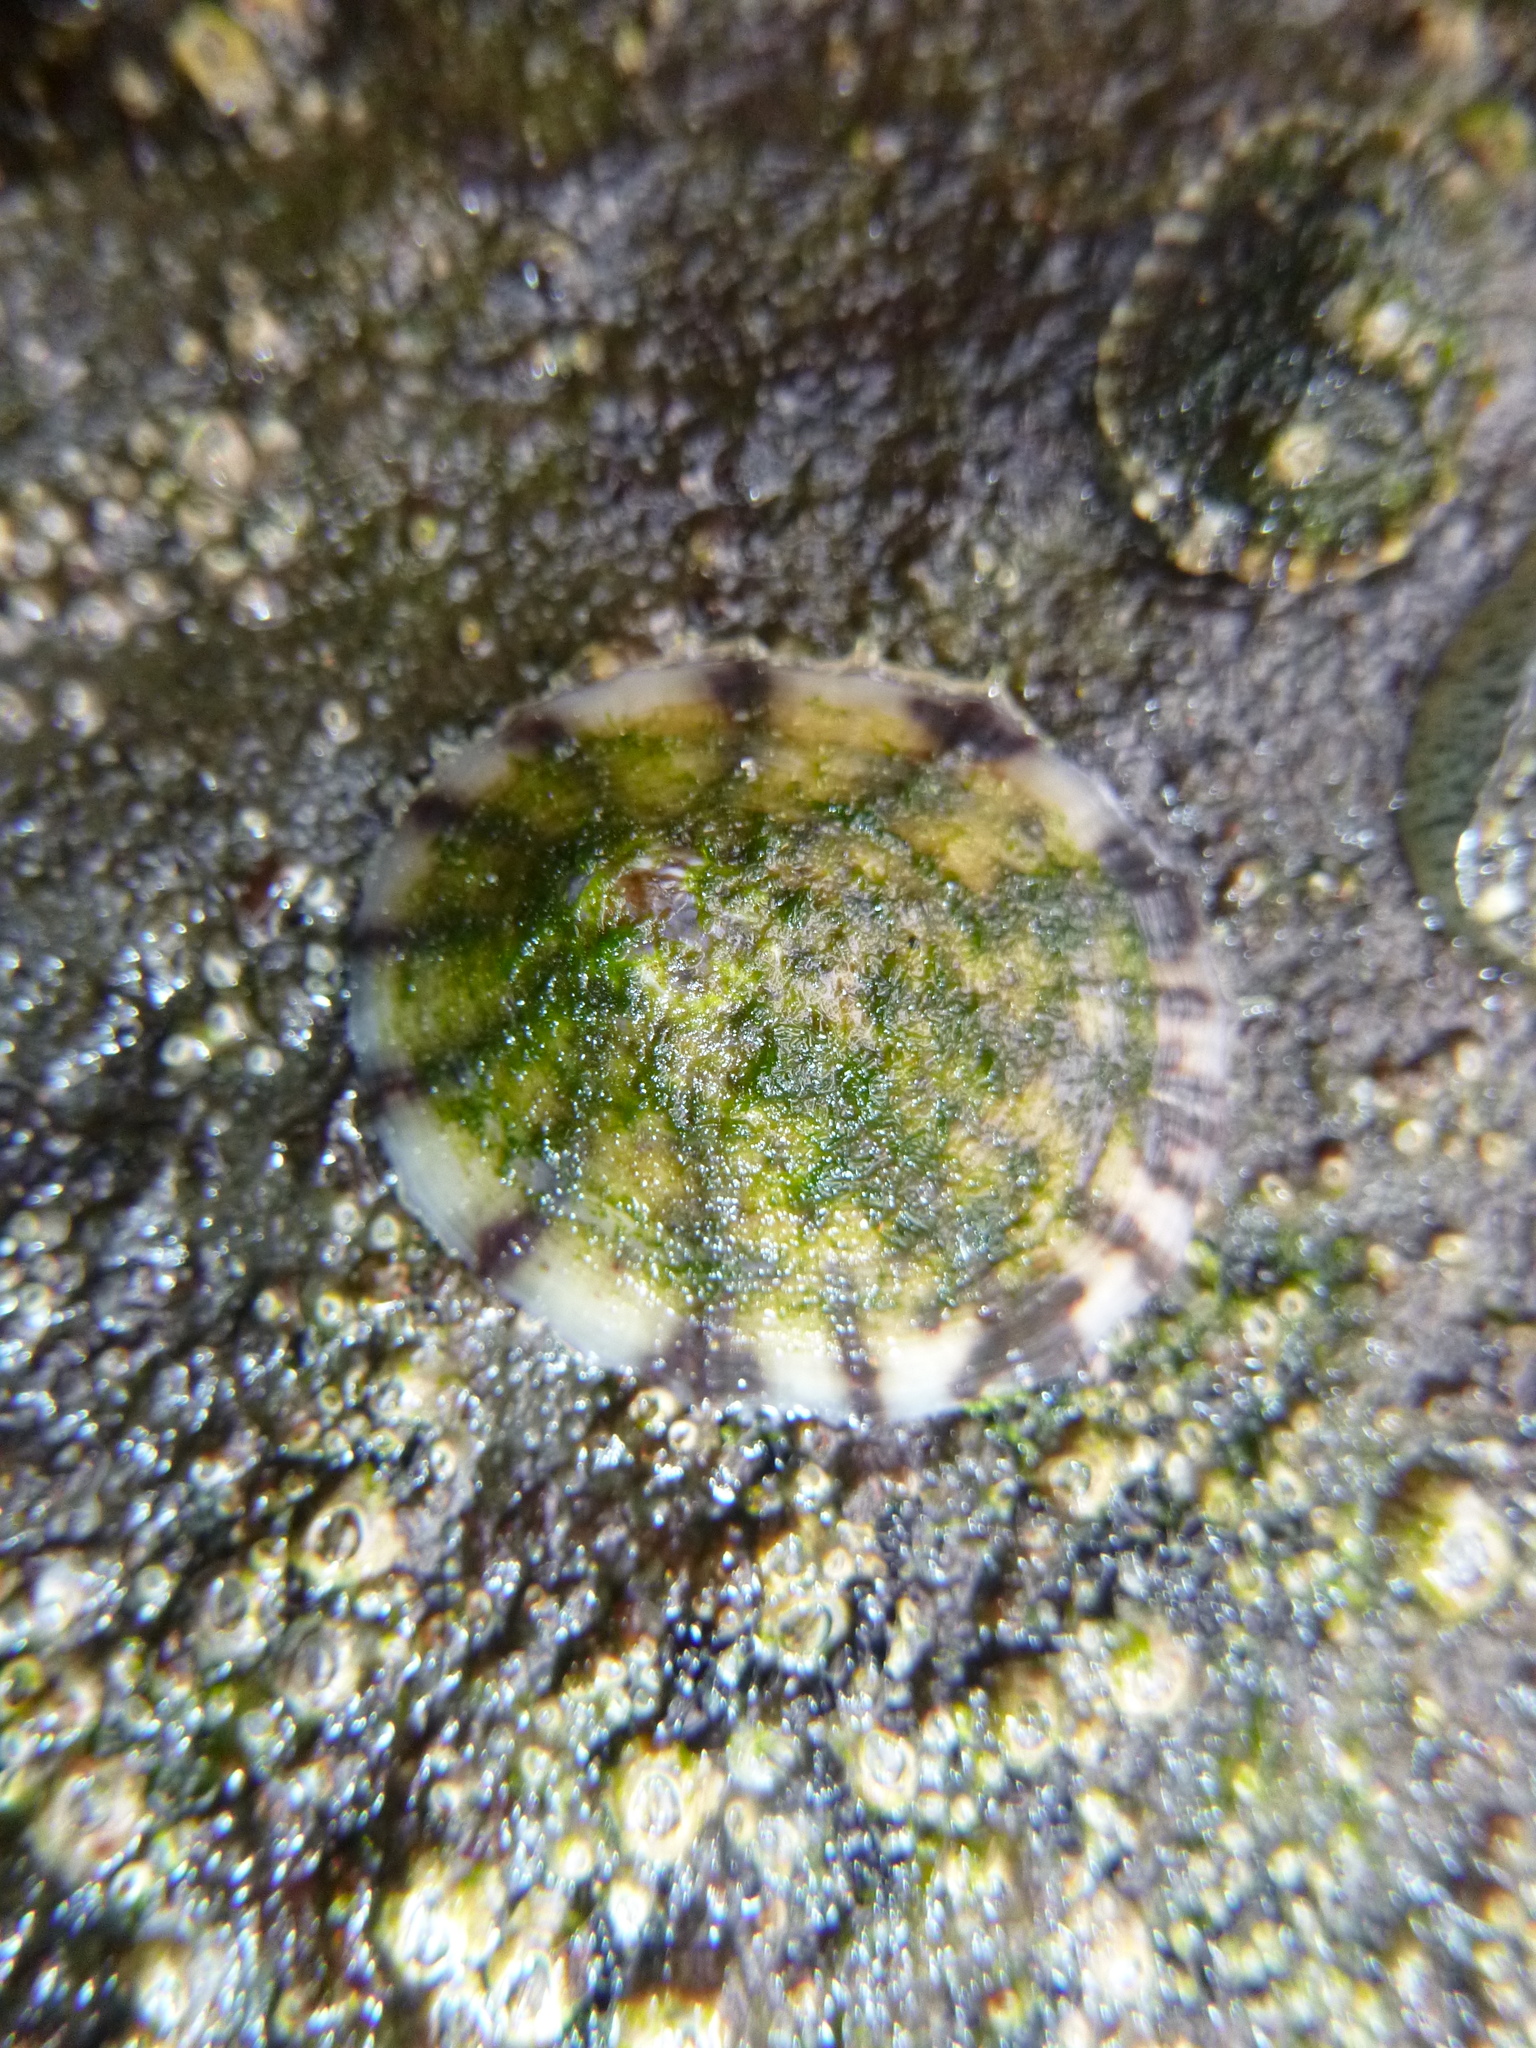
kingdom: Animalia
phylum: Mollusca
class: Gastropoda
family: Nacellidae
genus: Cellana
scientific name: Cellana radians
